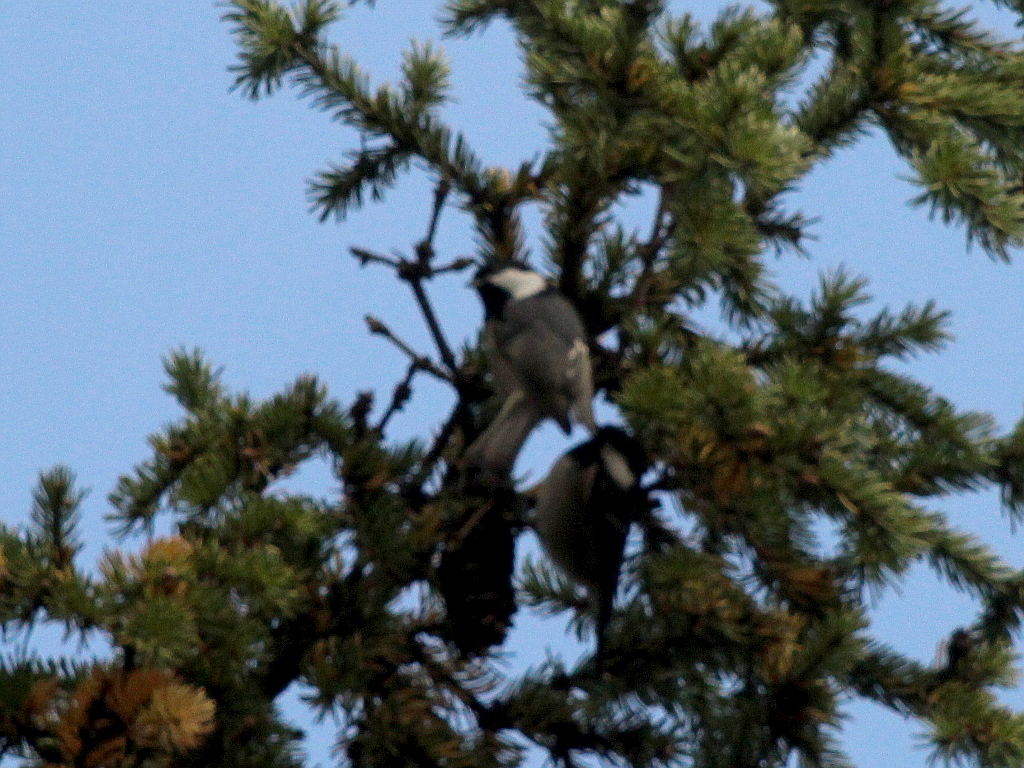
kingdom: Animalia
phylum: Chordata
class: Aves
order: Passeriformes
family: Paridae
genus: Periparus
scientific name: Periparus ater
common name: Coal tit
